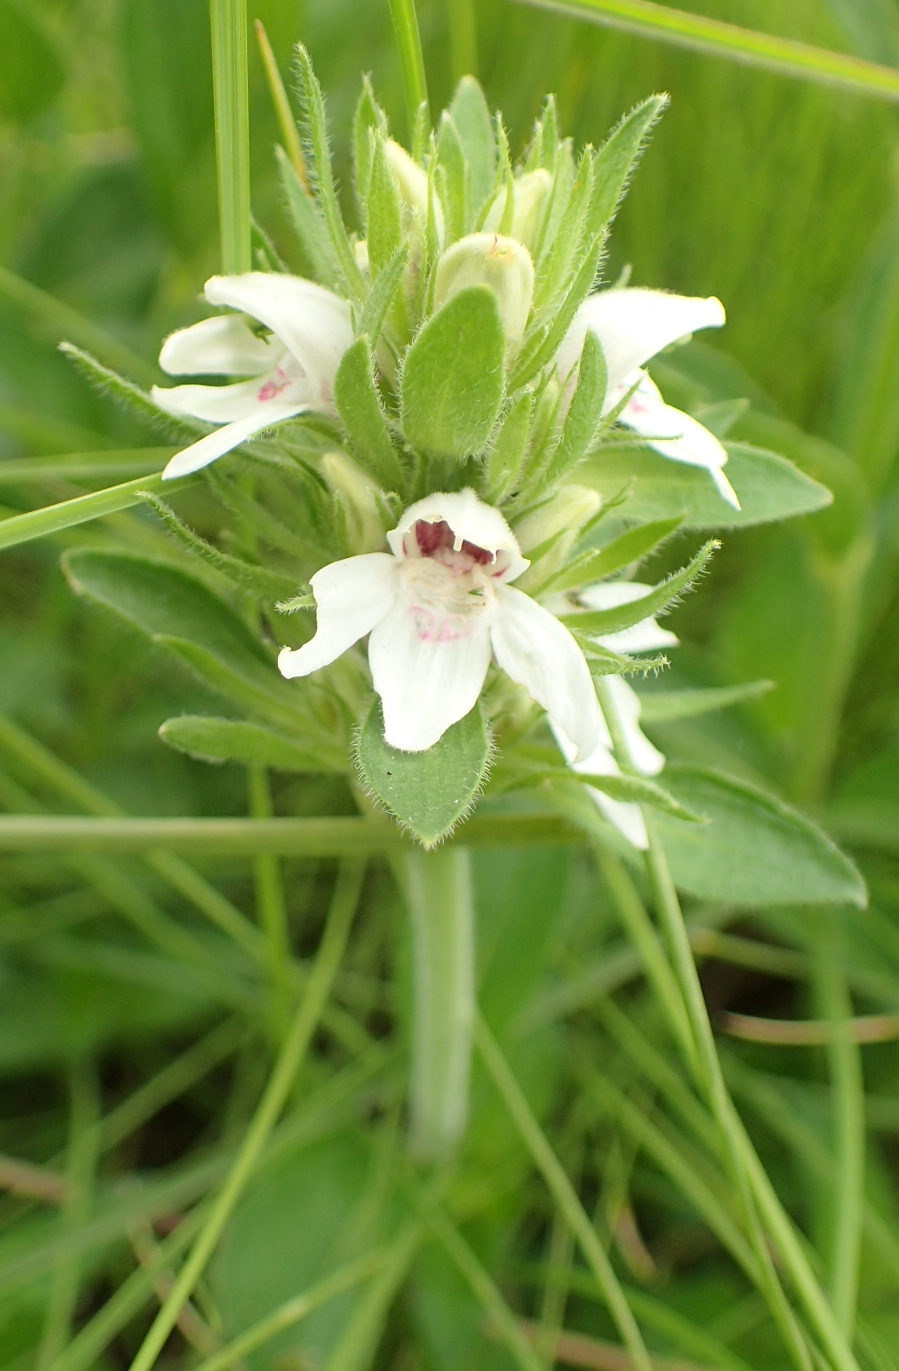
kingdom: Plantae
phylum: Tracheophyta
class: Magnoliopsida
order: Lamiales
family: Acanthaceae
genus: Justicia
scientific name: Justicia andromeda
